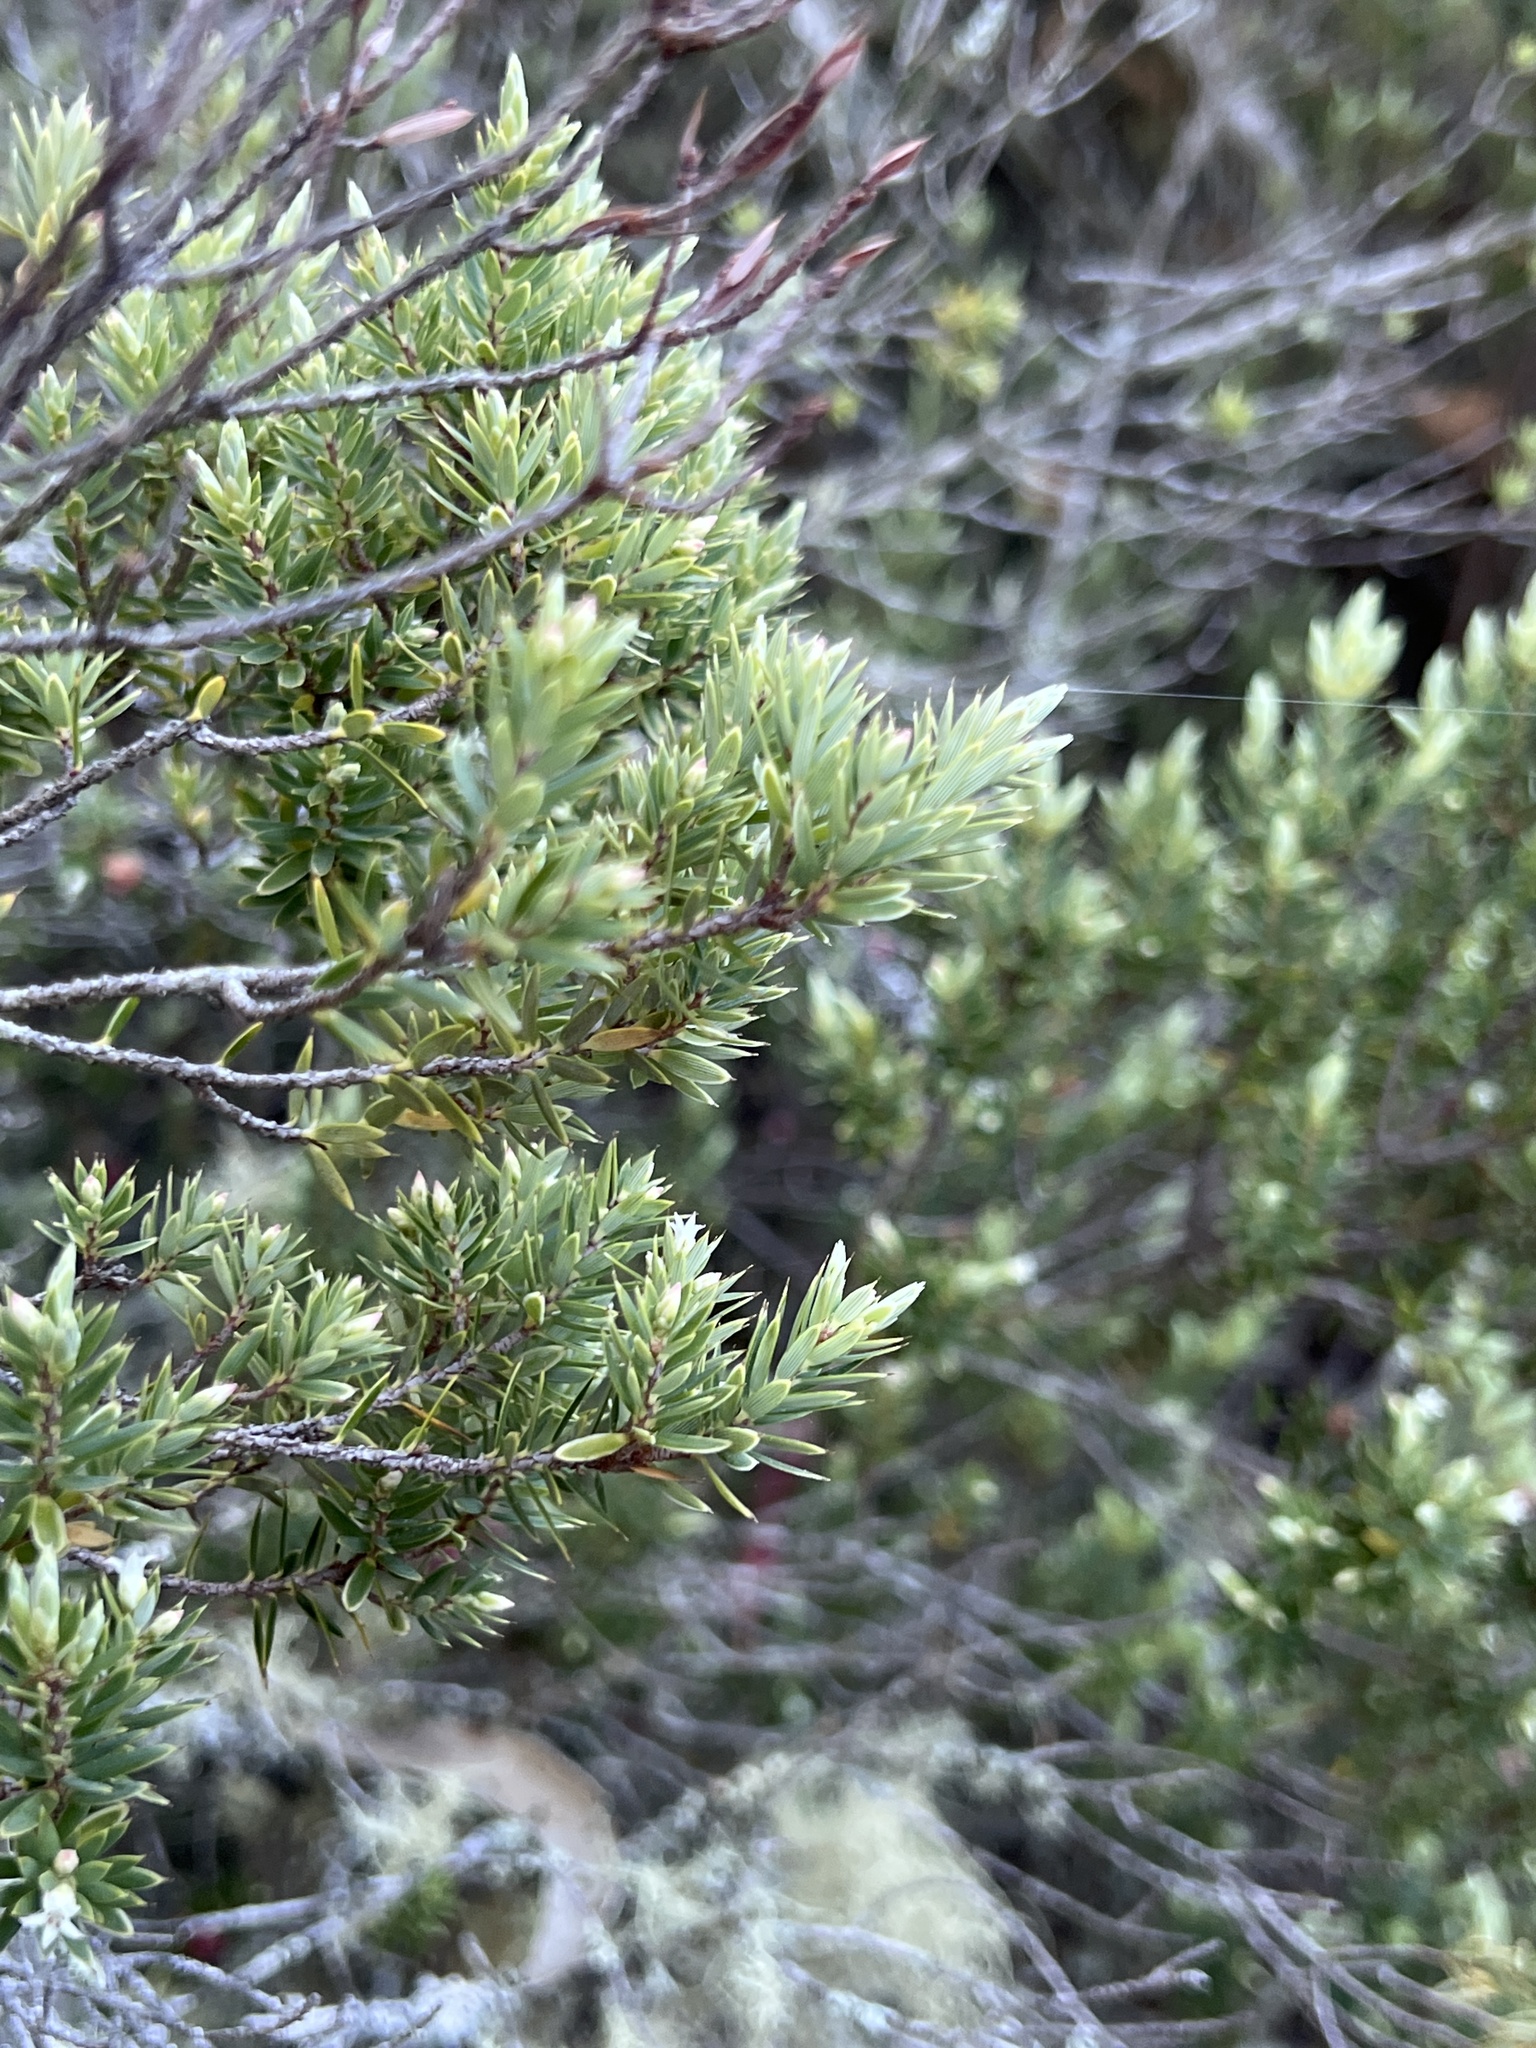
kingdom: Plantae
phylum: Tracheophyta
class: Magnoliopsida
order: Ericales
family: Ericaceae
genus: Leptecophylla
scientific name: Leptecophylla tameiameiae
